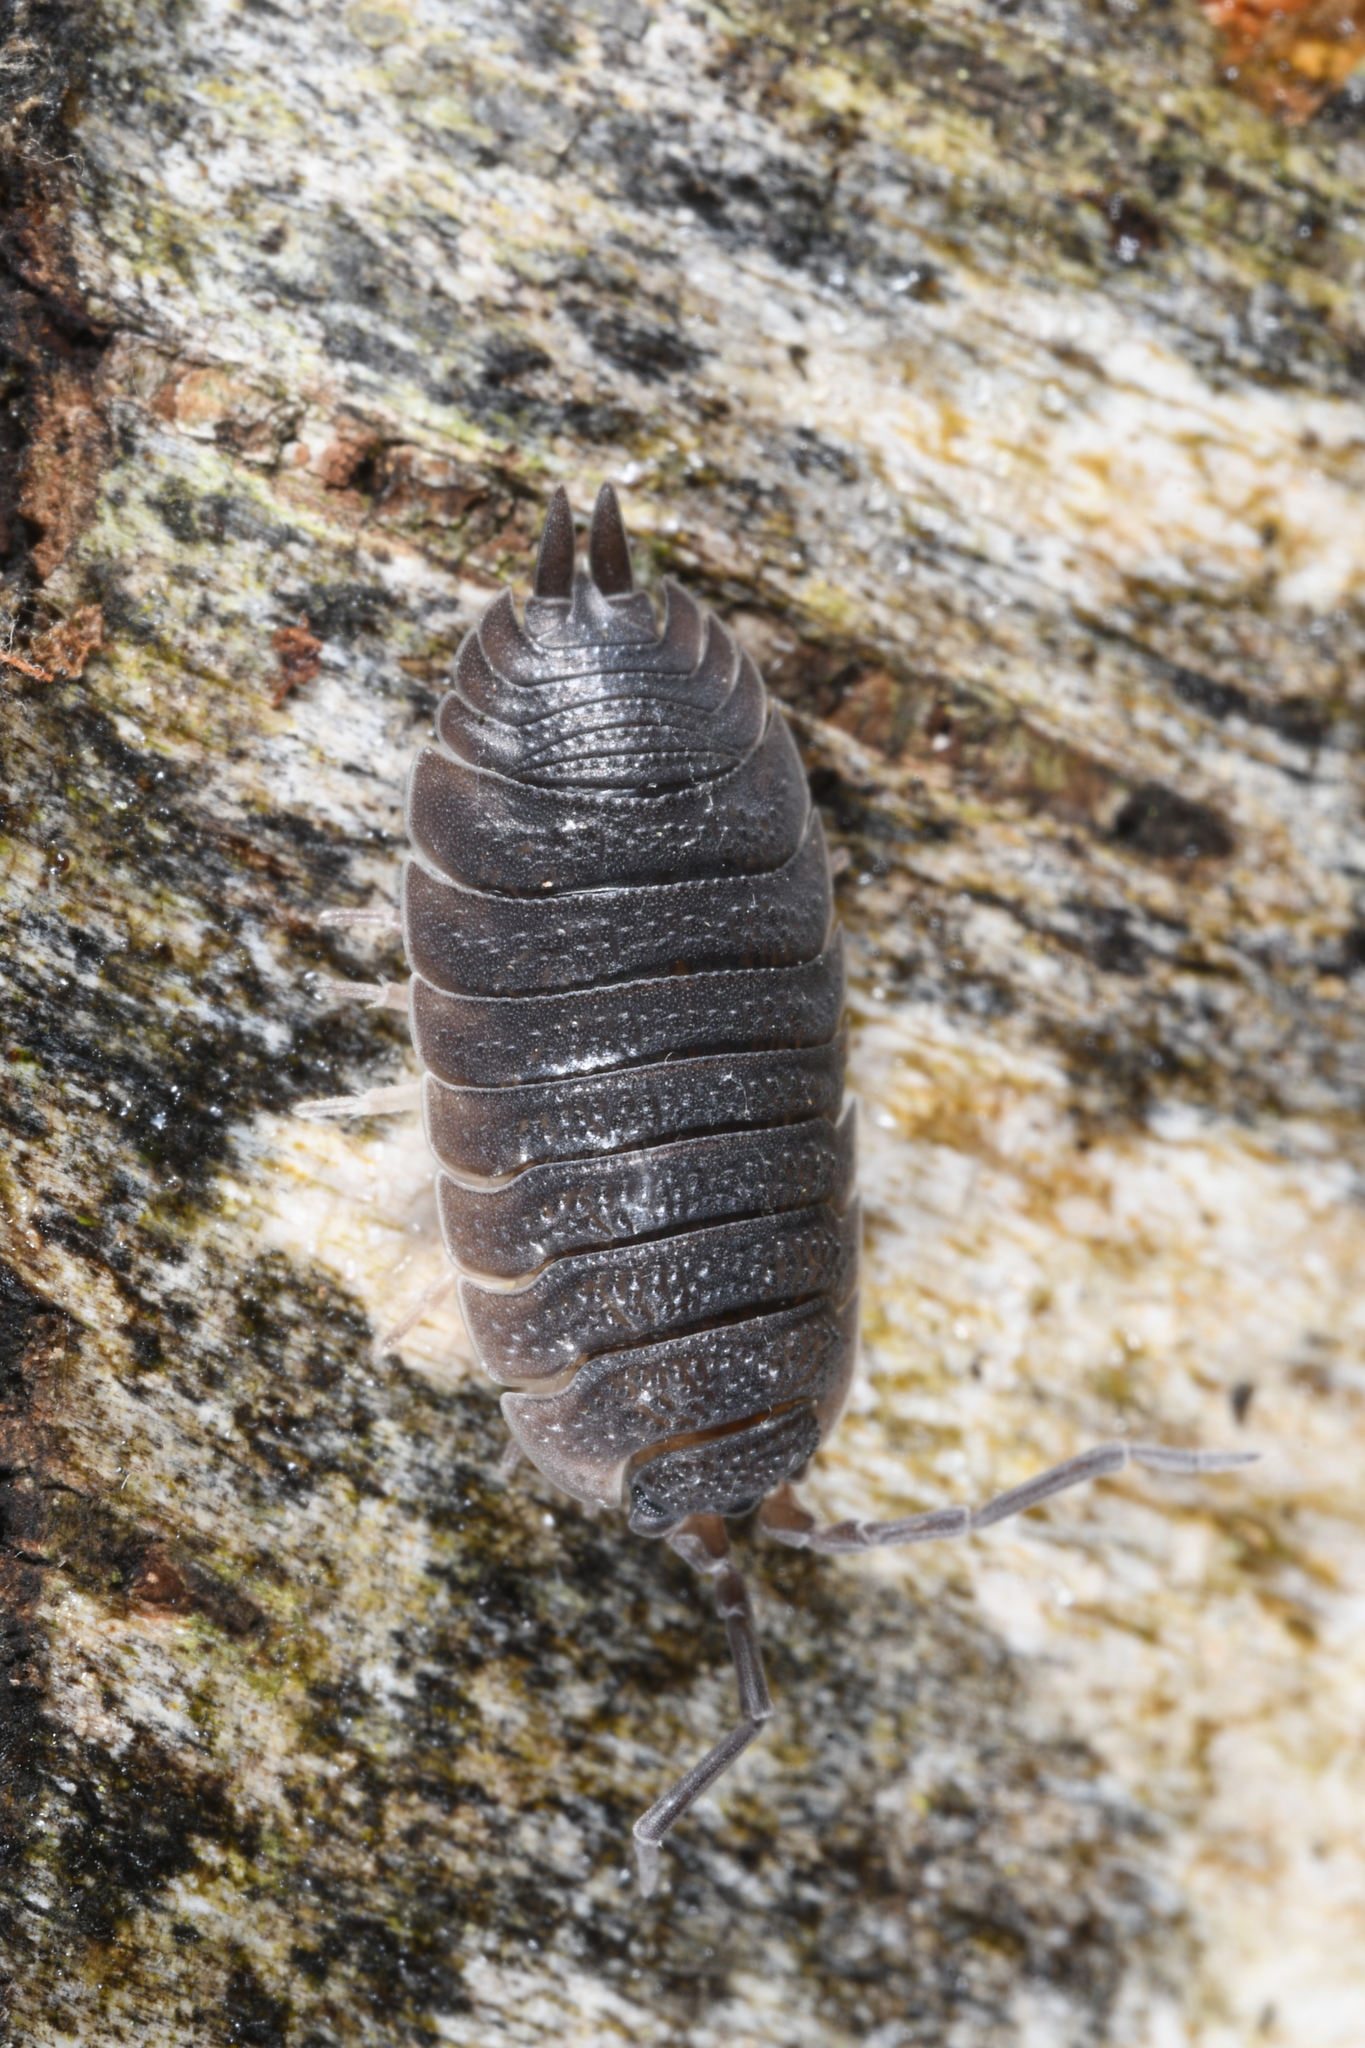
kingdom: Animalia
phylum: Arthropoda
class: Malacostraca
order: Isopoda
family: Porcellionidae
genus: Porcellio
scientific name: Porcellio scaber
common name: Common rough woodlouse
